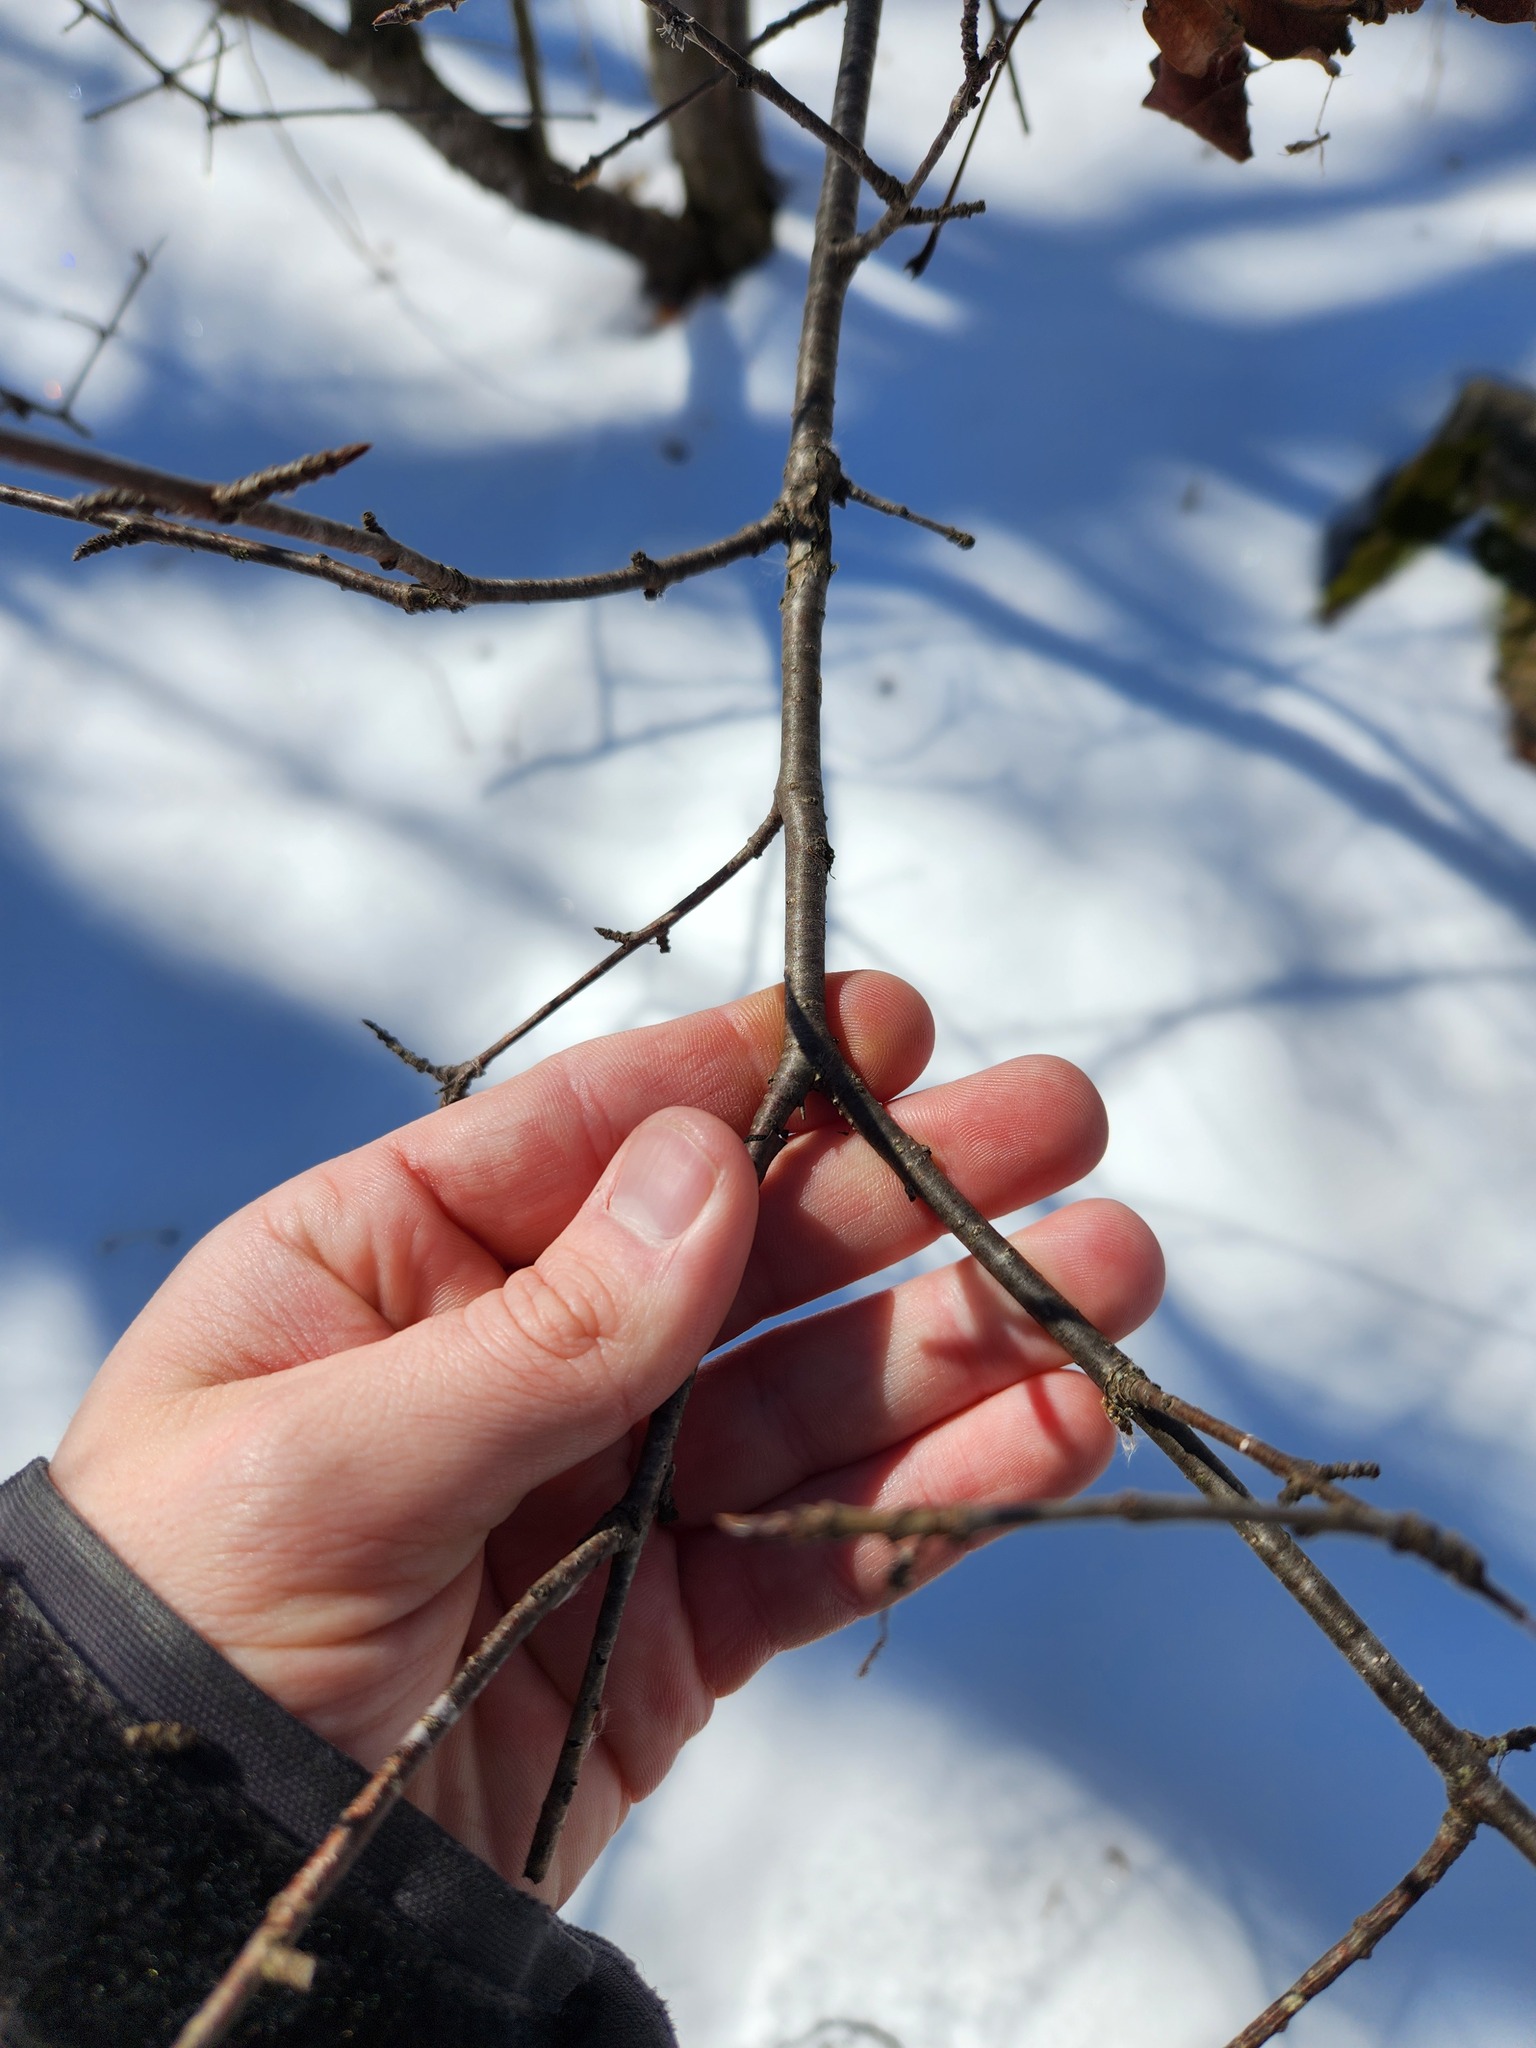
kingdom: Plantae
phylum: Tracheophyta
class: Magnoliopsida
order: Rosales
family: Rhamnaceae
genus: Rhamnus
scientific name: Rhamnus cathartica
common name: Common buckthorn
